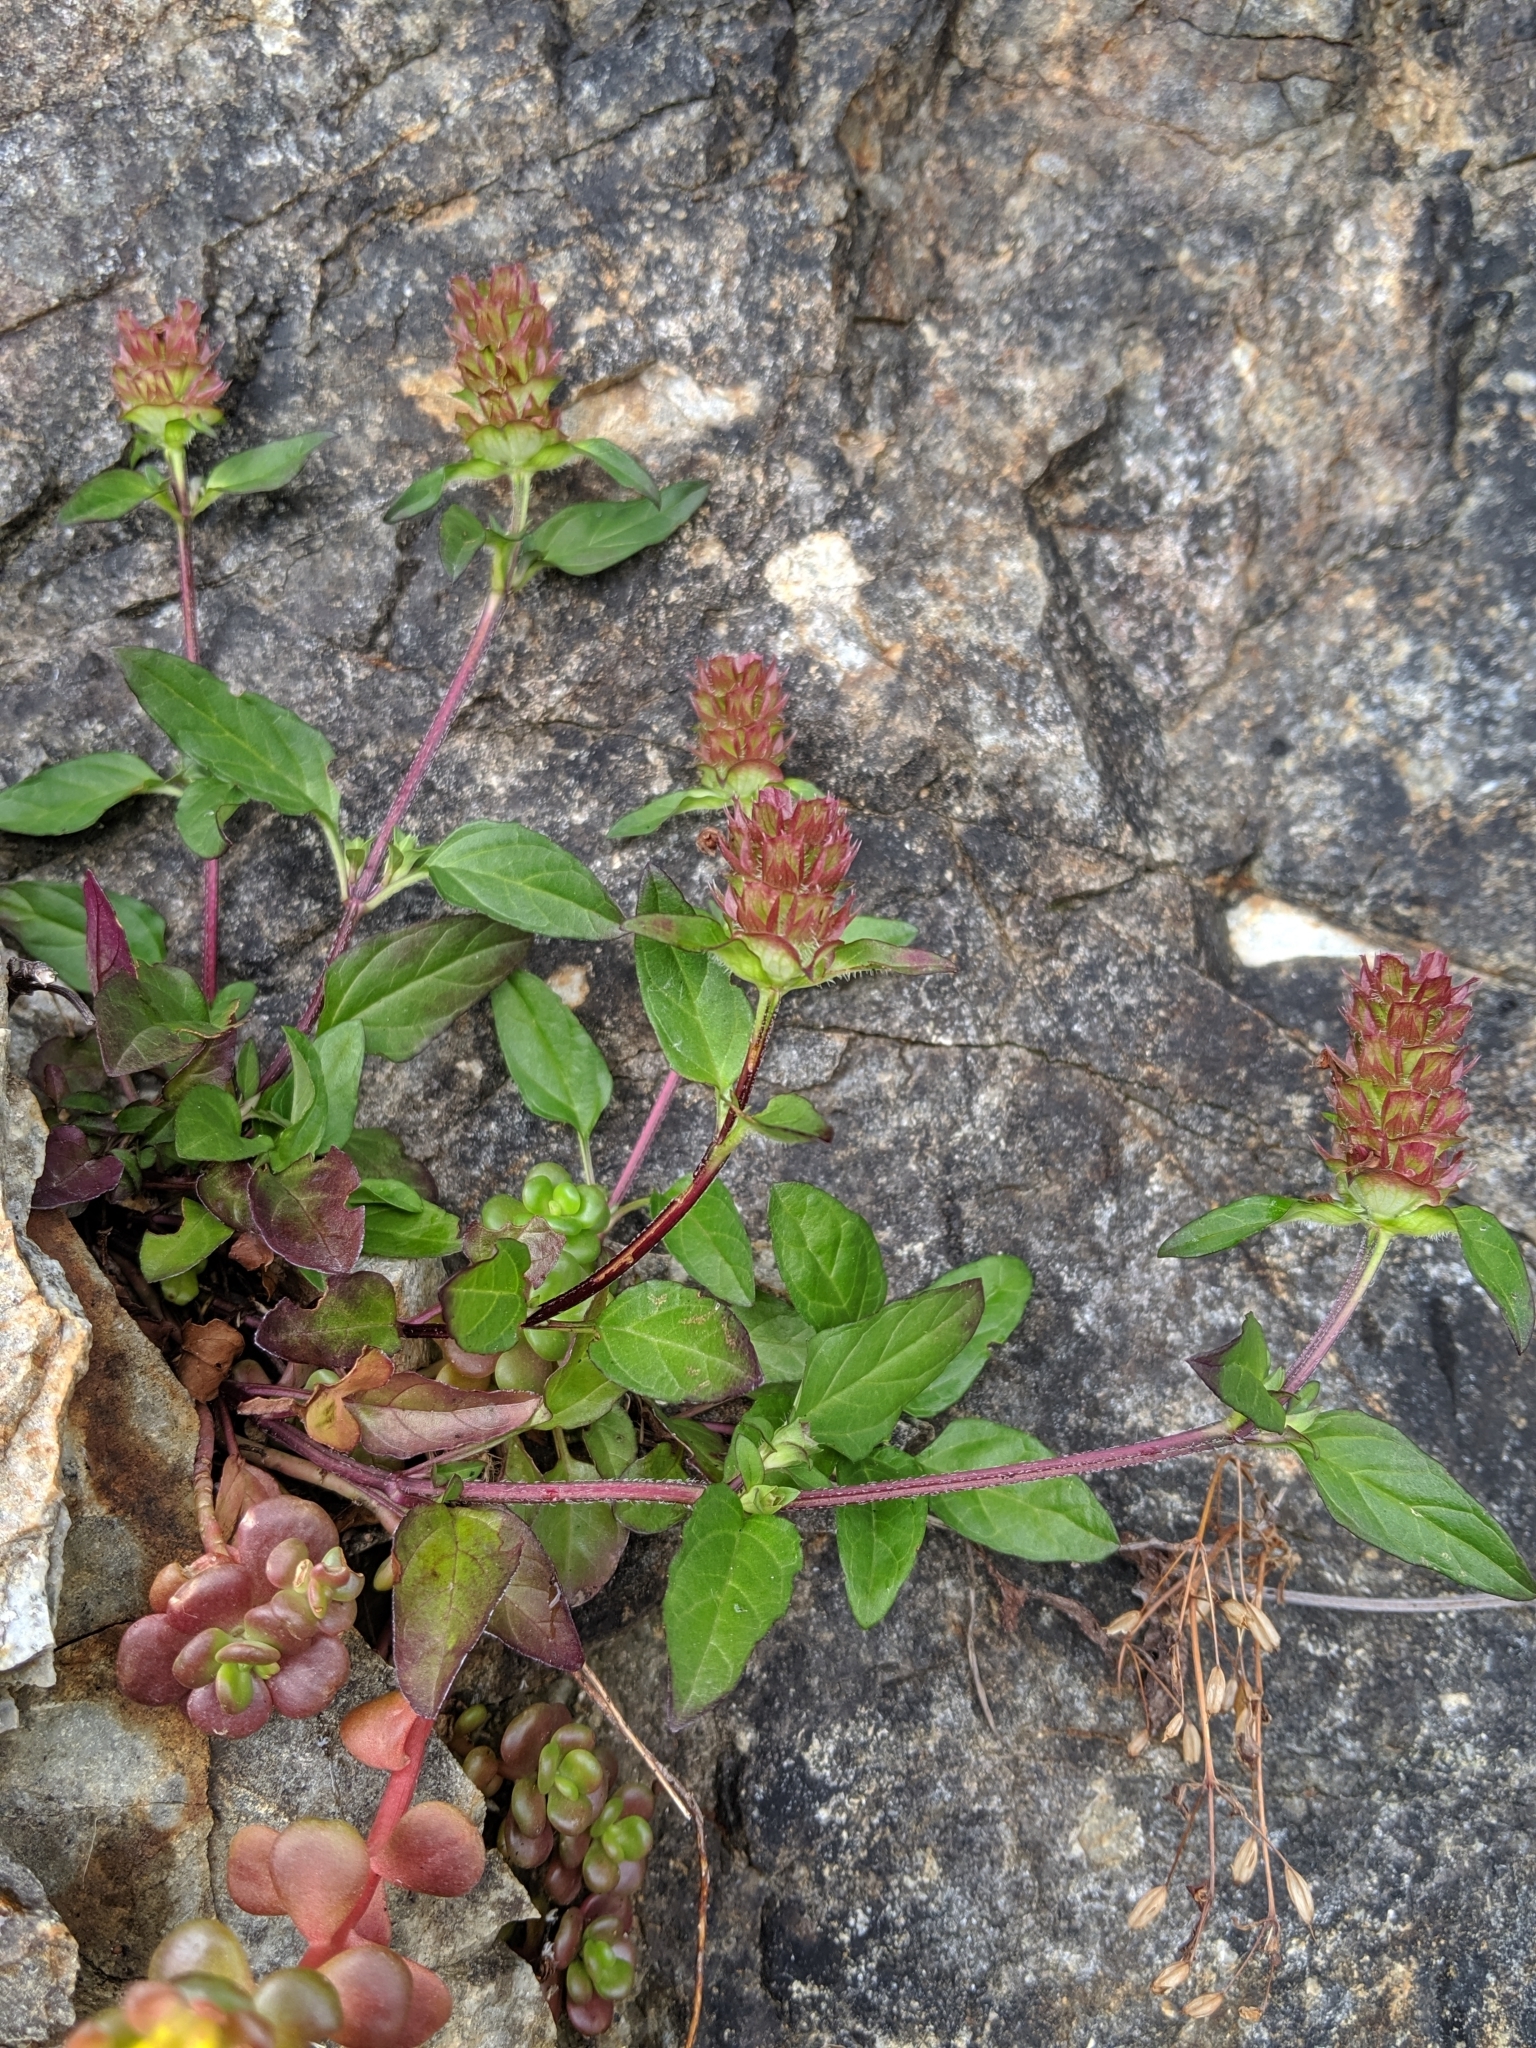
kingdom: Plantae
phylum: Tracheophyta
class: Magnoliopsida
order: Lamiales
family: Lamiaceae
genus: Prunella
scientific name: Prunella vulgaris
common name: Heal-all
